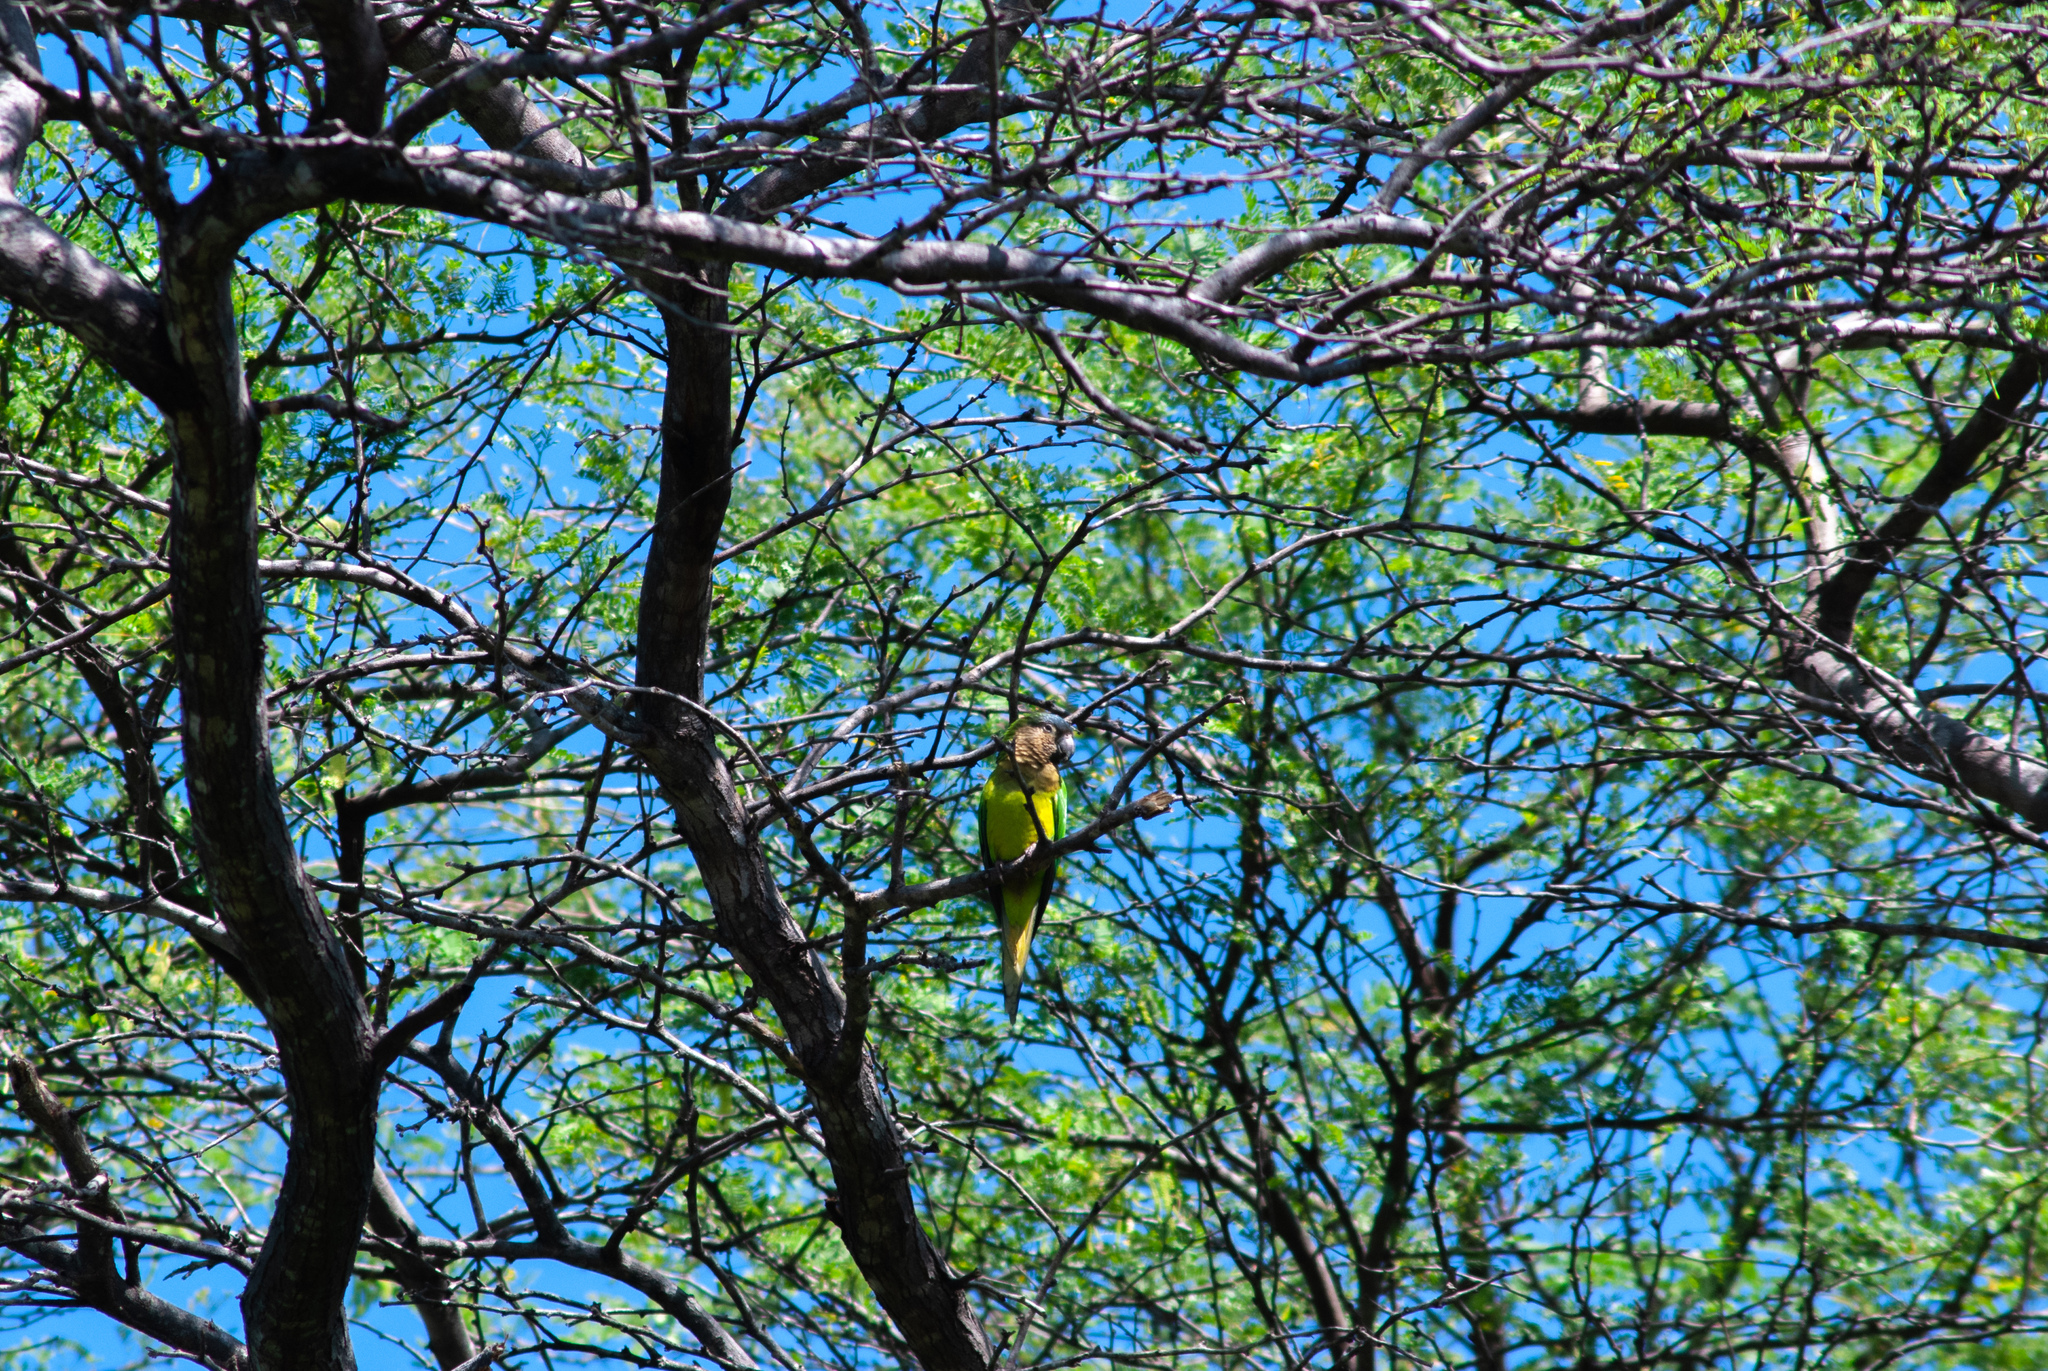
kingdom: Animalia
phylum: Chordata
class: Aves
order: Psittaciformes
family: Psittacidae
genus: Aratinga
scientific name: Aratinga pertinax
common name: Brown-throated parakeet
